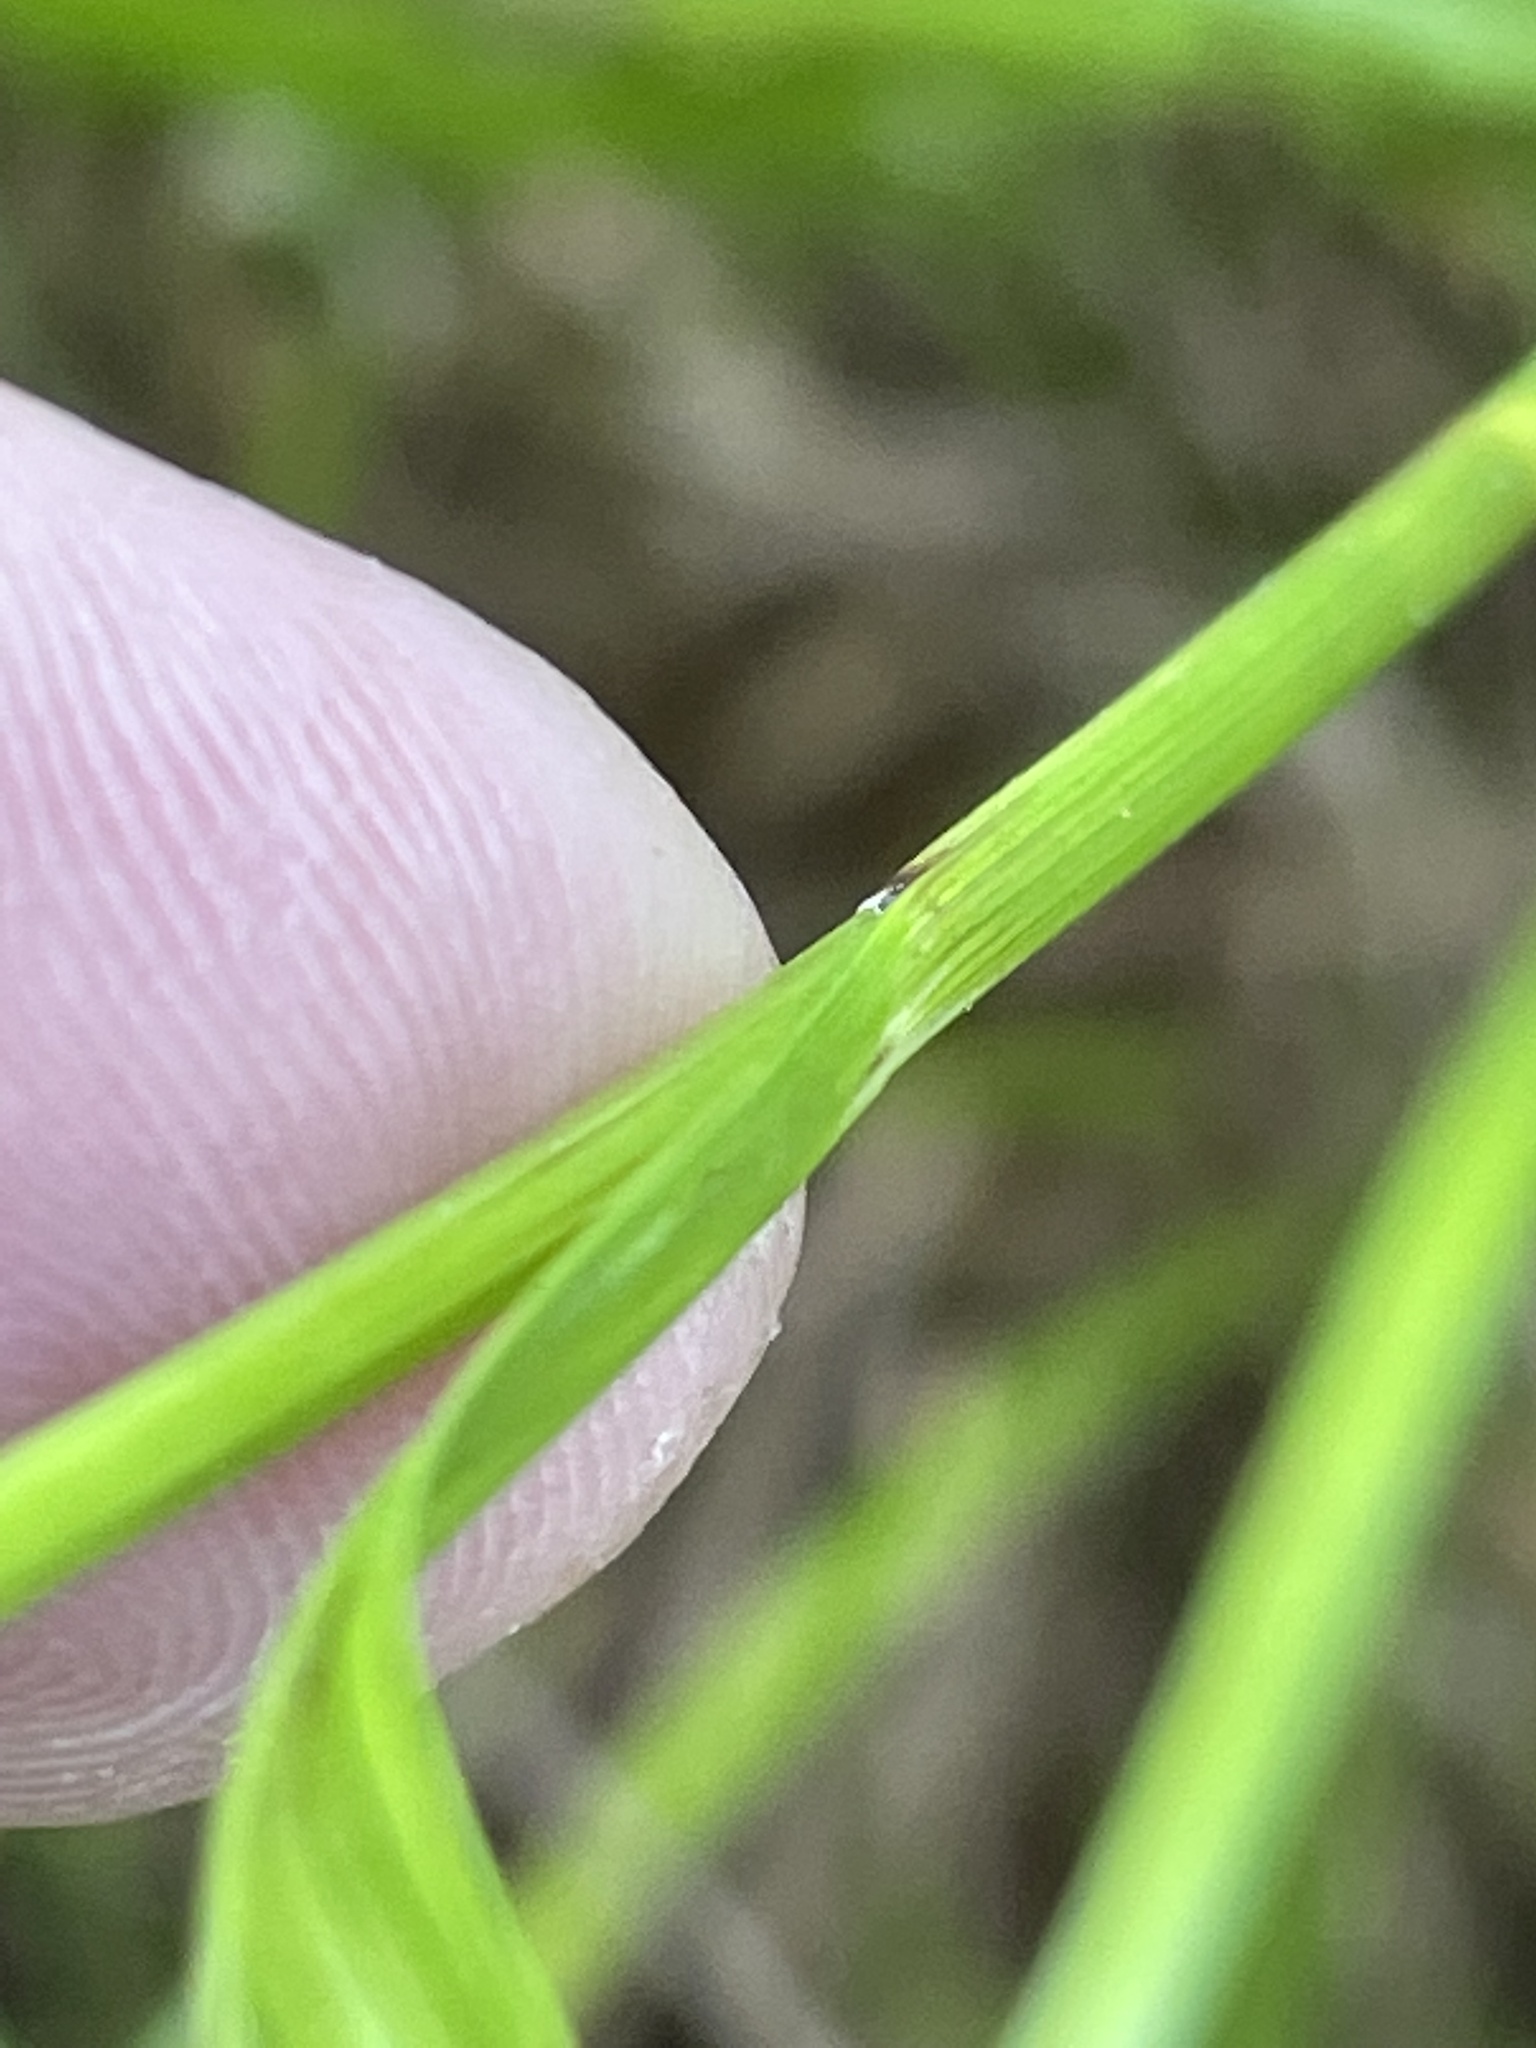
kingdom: Plantae
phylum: Tracheophyta
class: Liliopsida
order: Poales
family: Cyperaceae
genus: Rhynchospora
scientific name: Rhynchospora inexpansa
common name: Nodding beaksedge
